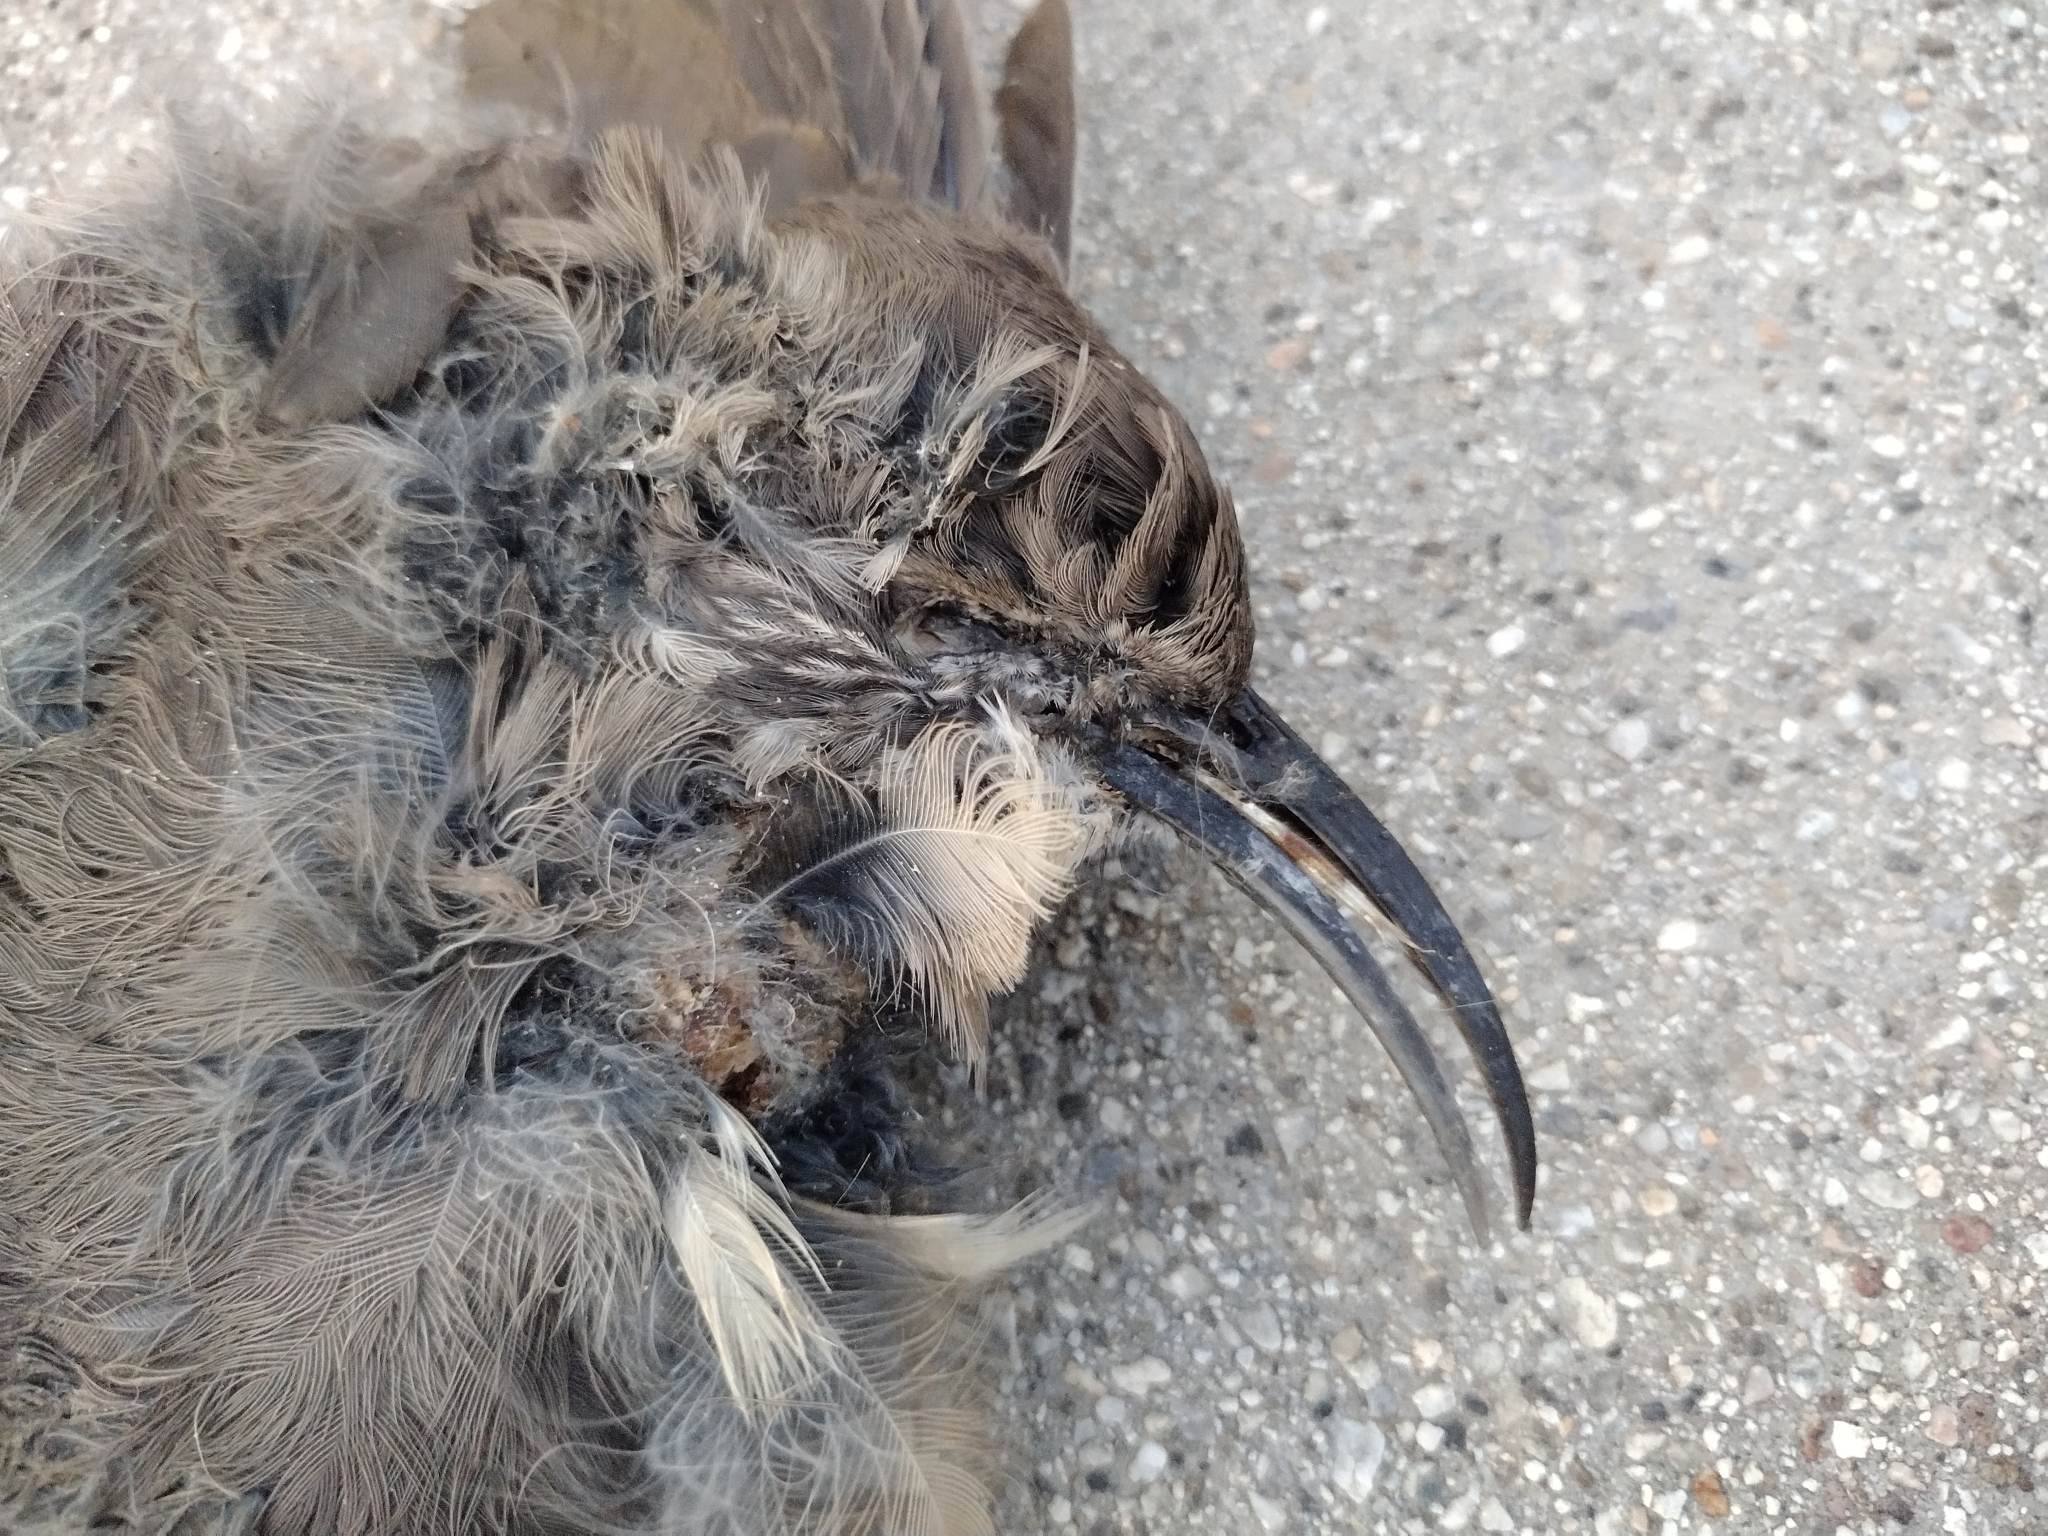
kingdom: Animalia
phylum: Chordata
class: Aves
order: Passeriformes
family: Mimidae
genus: Toxostoma
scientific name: Toxostoma redivivum
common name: California thrasher
